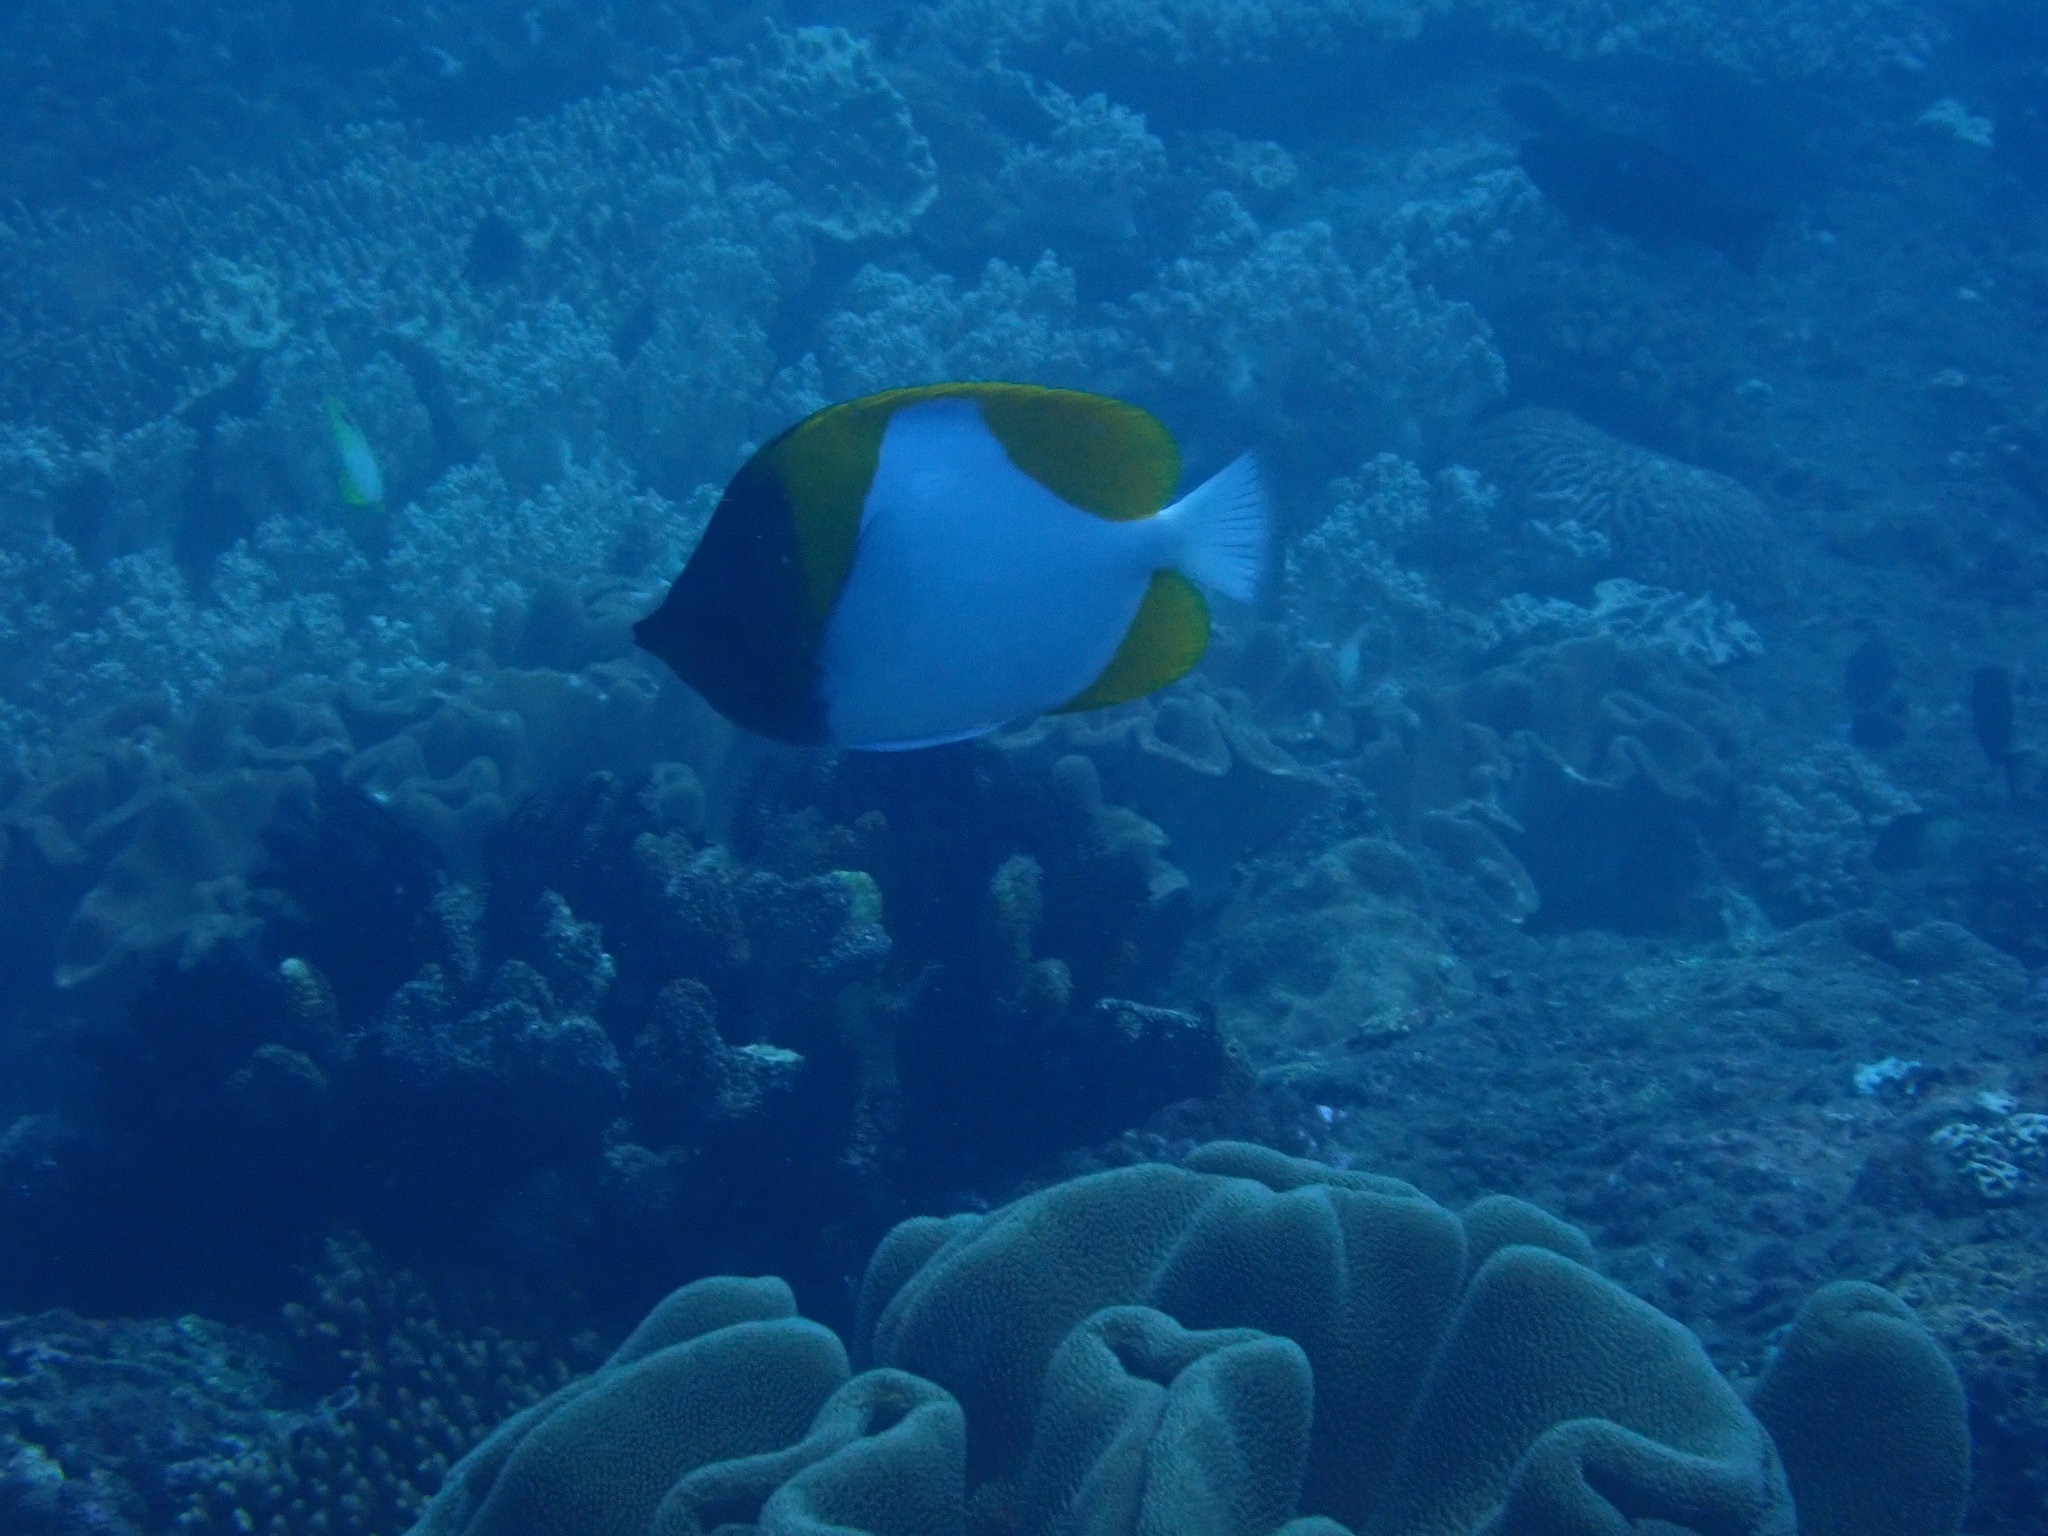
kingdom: Animalia
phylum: Chordata
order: Perciformes
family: Chaetodontidae
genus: Hemitaurichthys
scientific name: Hemitaurichthys polylepis
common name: Brushytoothed butterflyfish
